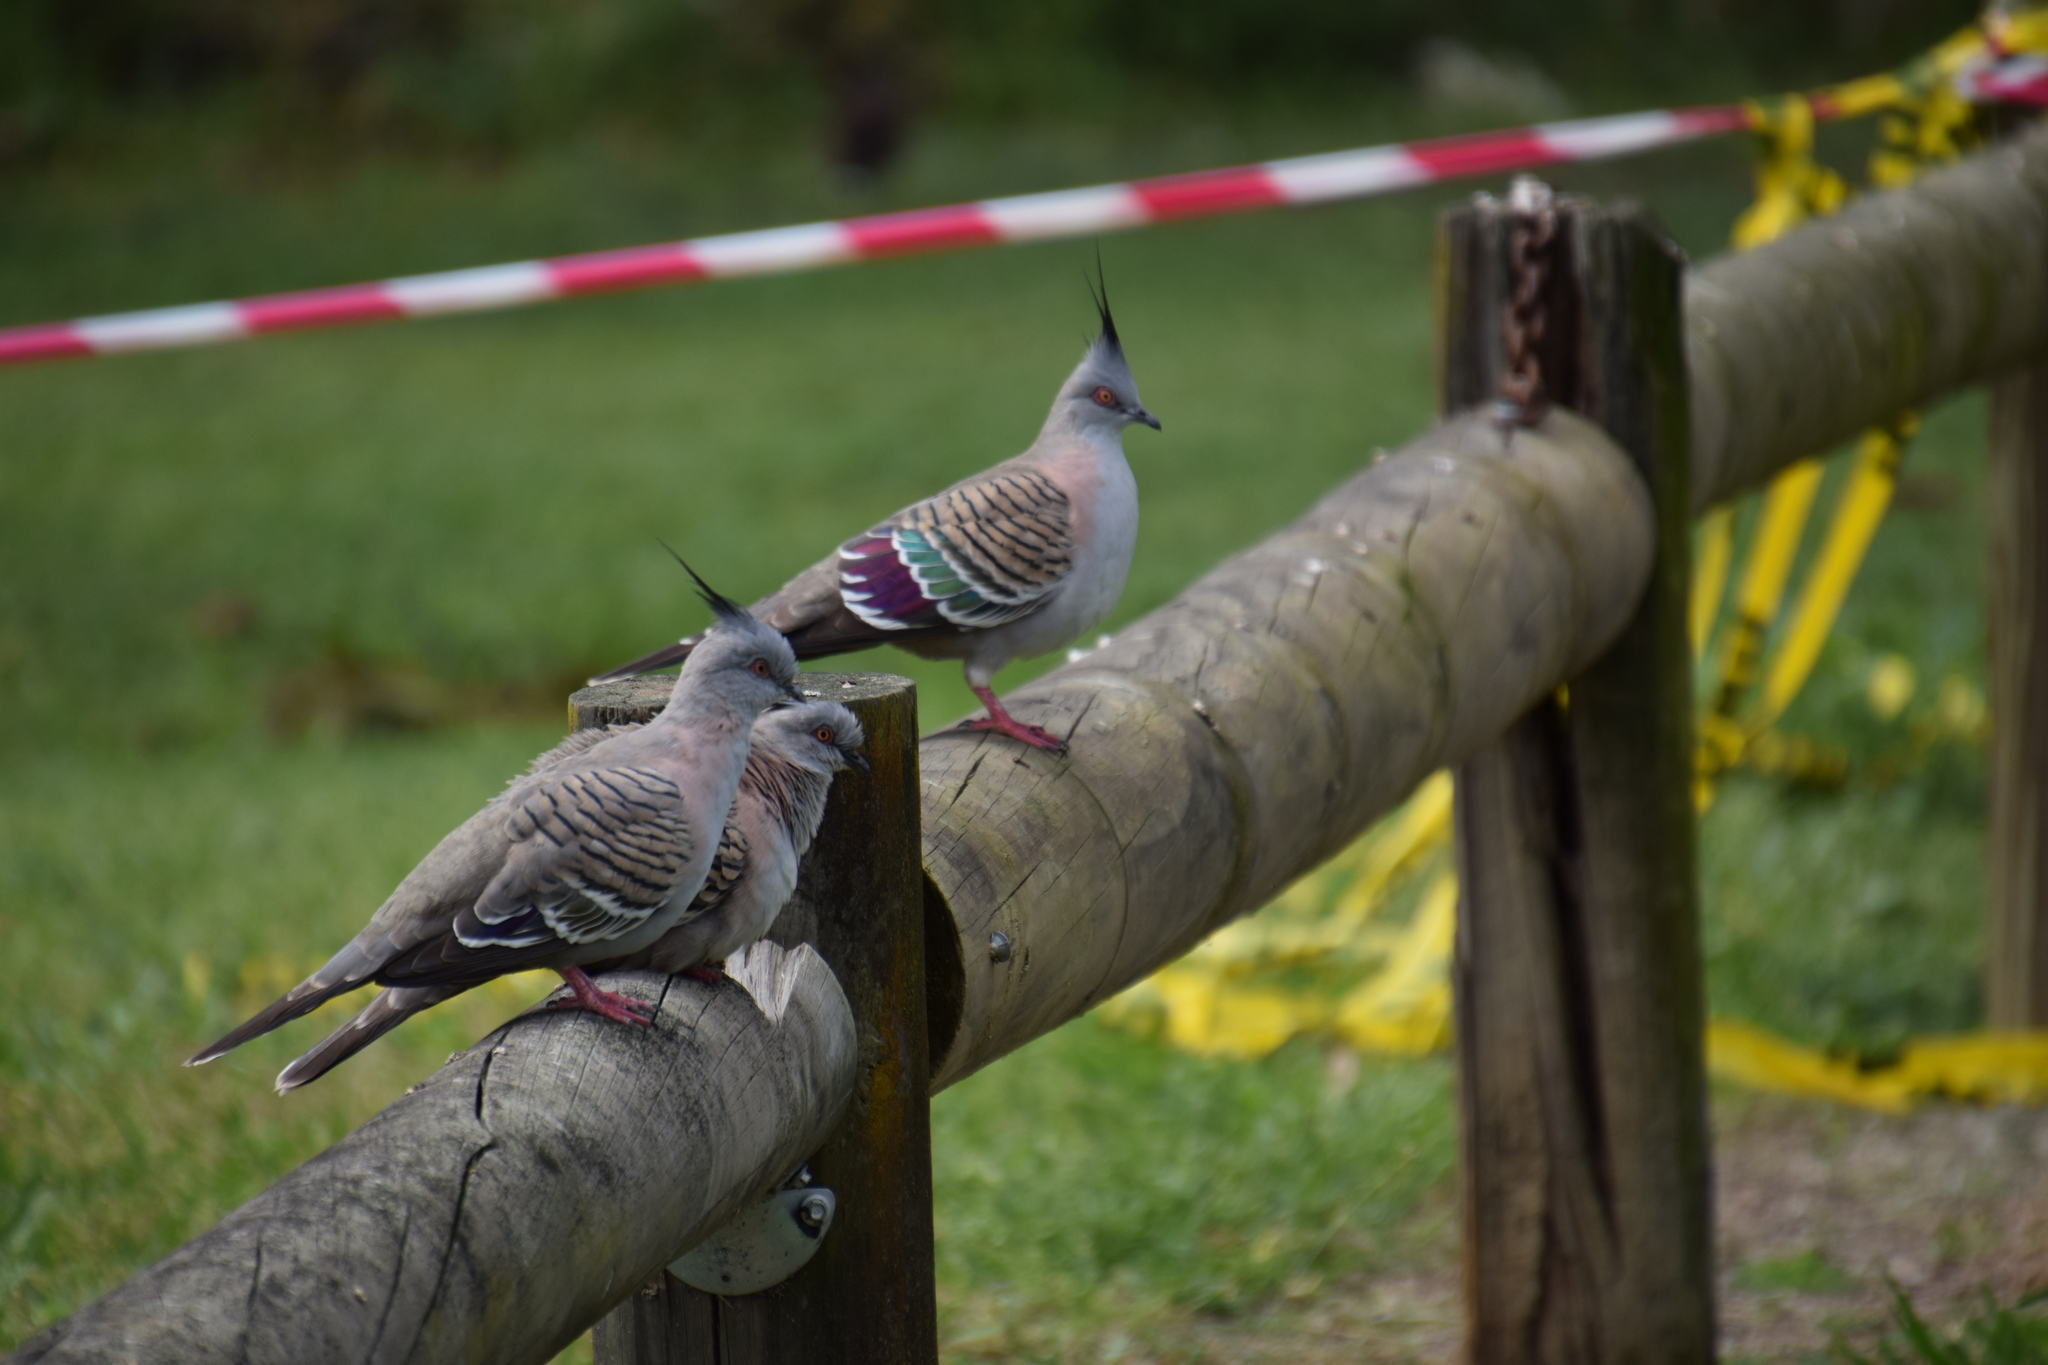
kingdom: Animalia
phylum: Chordata
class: Aves
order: Columbiformes
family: Columbidae
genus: Ocyphaps
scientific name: Ocyphaps lophotes
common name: Crested pigeon
